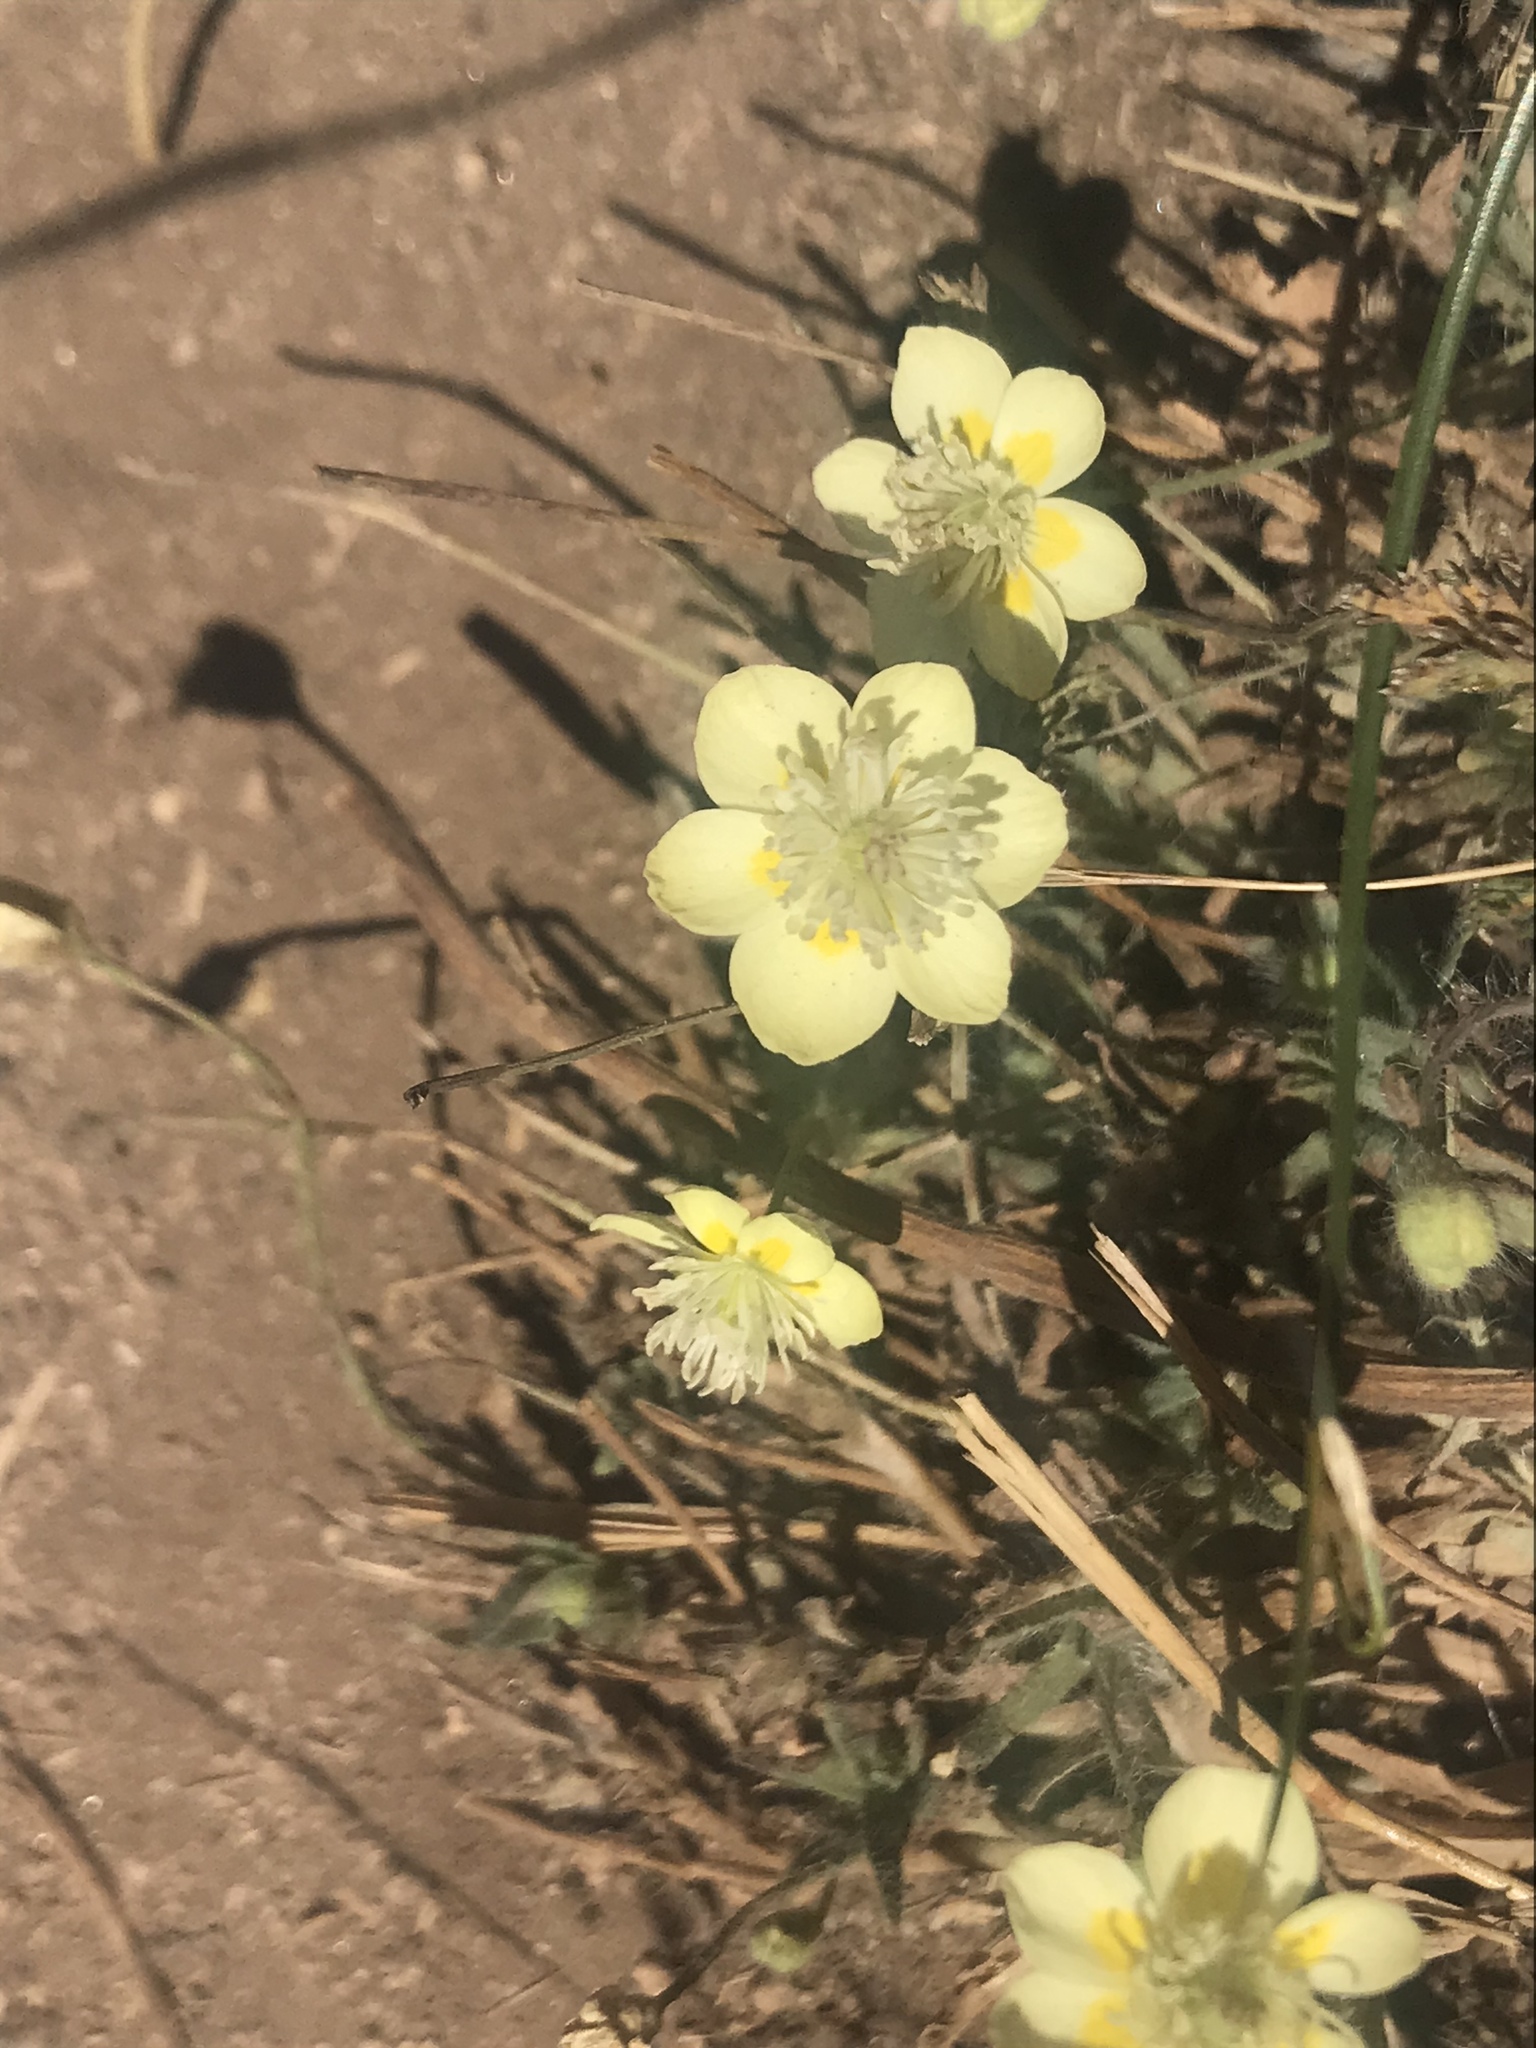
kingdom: Plantae
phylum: Tracheophyta
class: Magnoliopsida
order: Ranunculales
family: Papaveraceae
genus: Platystemon
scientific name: Platystemon californicus
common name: Cream-cups
